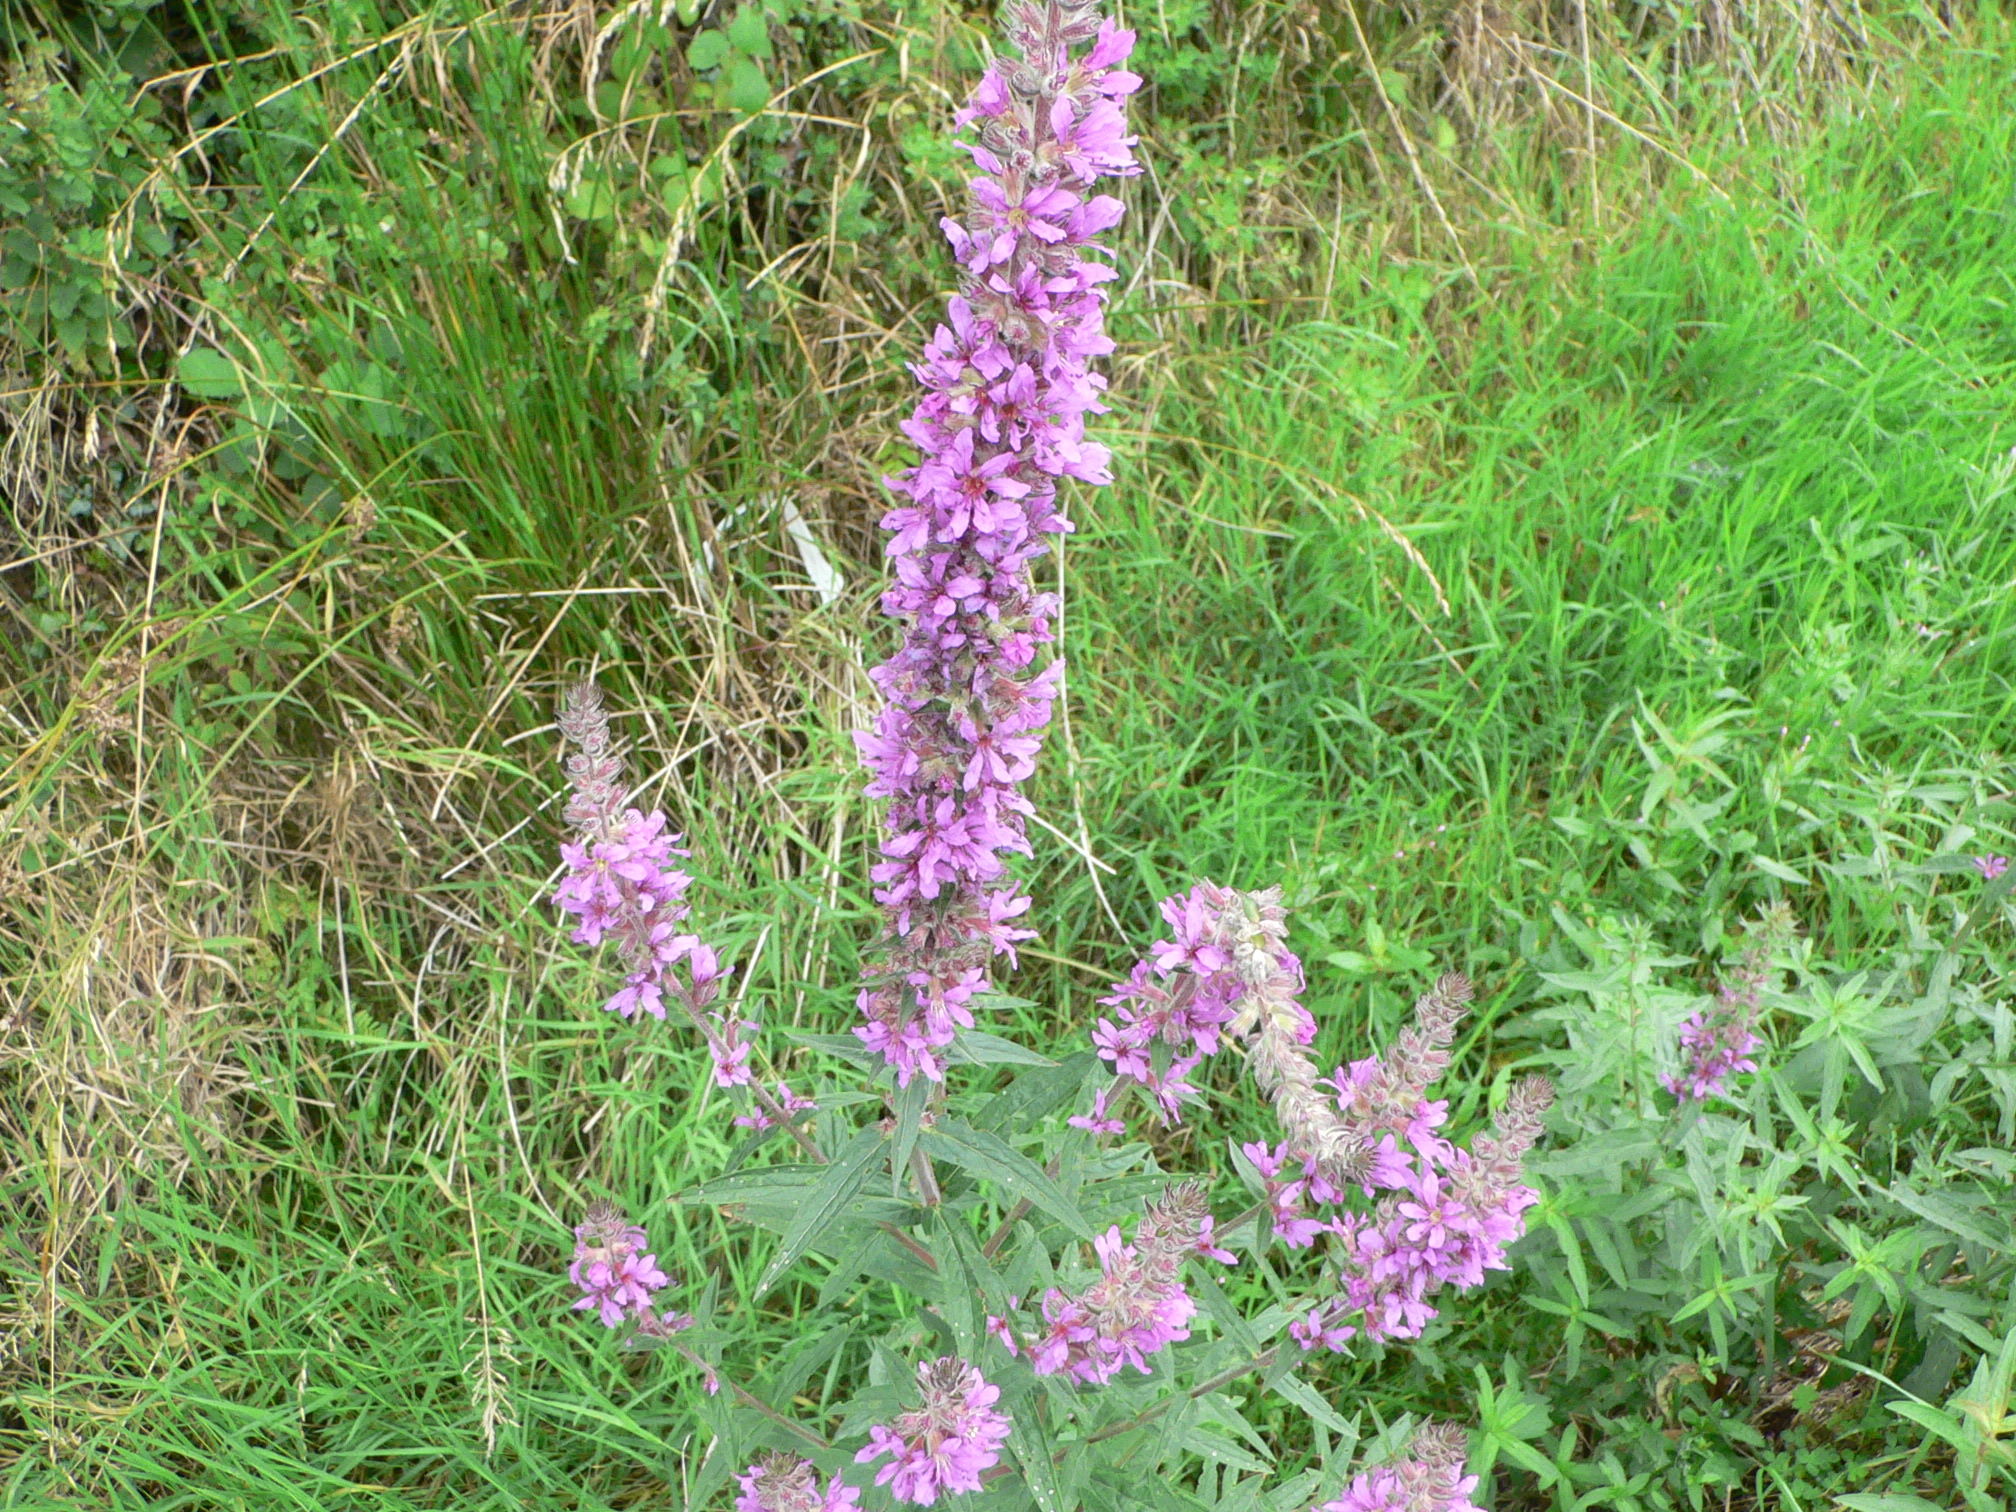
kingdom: Plantae
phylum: Tracheophyta
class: Magnoliopsida
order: Myrtales
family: Lythraceae
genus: Lythrum
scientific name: Lythrum salicaria
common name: Purple loosestrife
